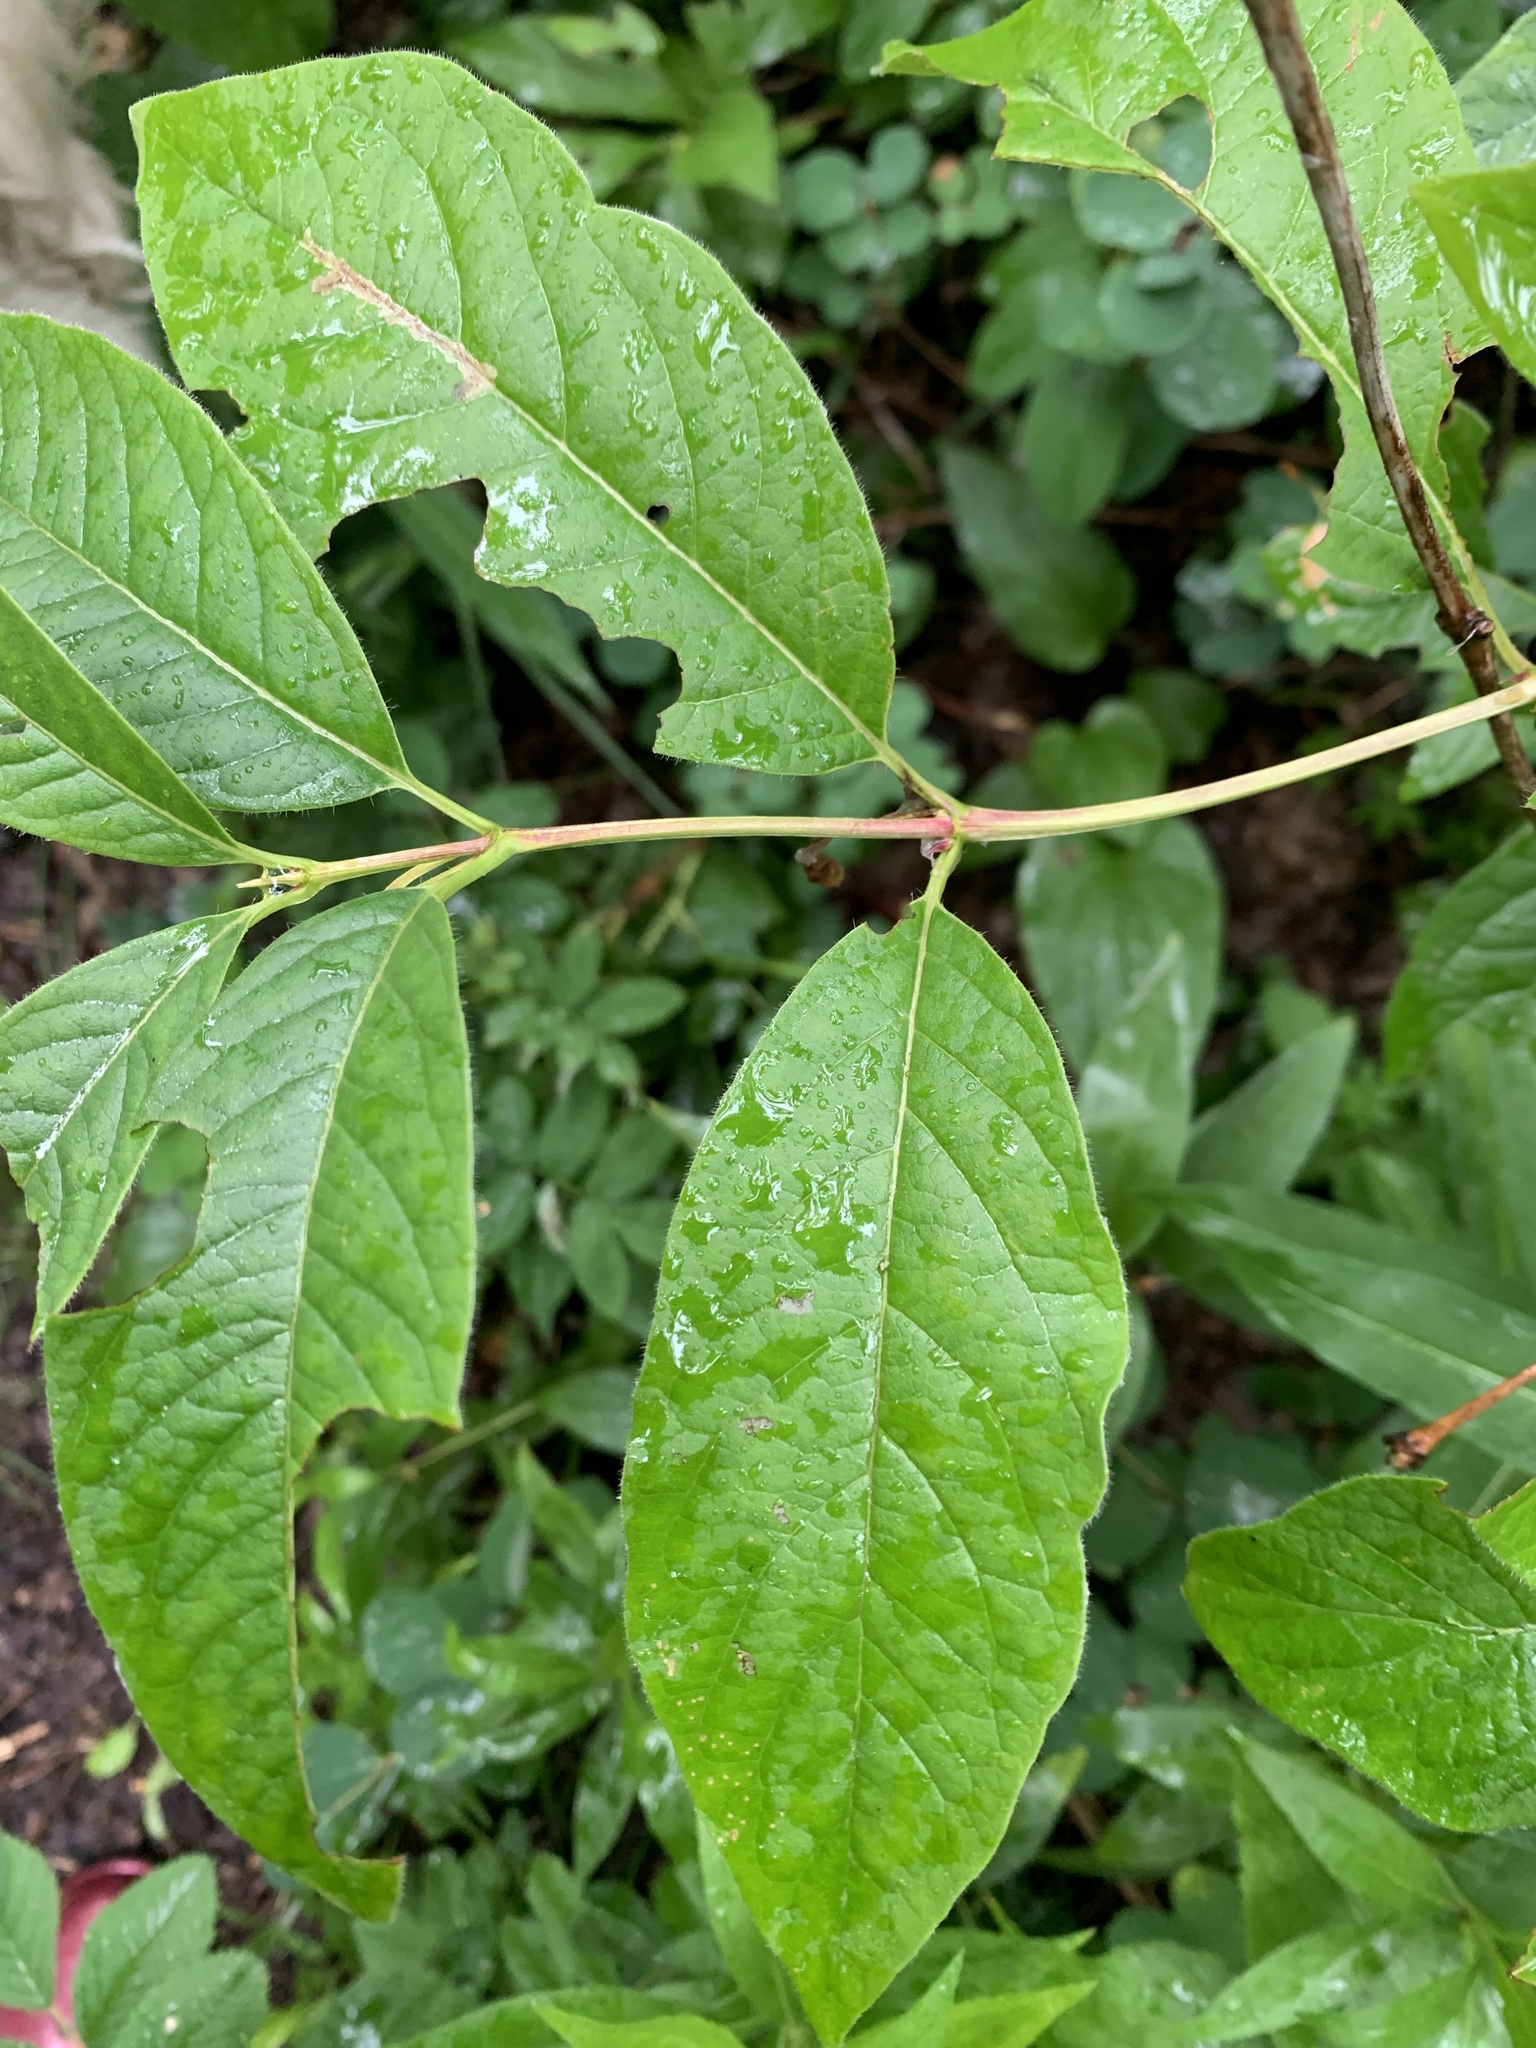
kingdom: Plantae
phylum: Tracheophyta
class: Magnoliopsida
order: Dipsacales
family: Caprifoliaceae
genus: Lonicera
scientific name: Lonicera involucrata
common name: Californian honeysuckle
